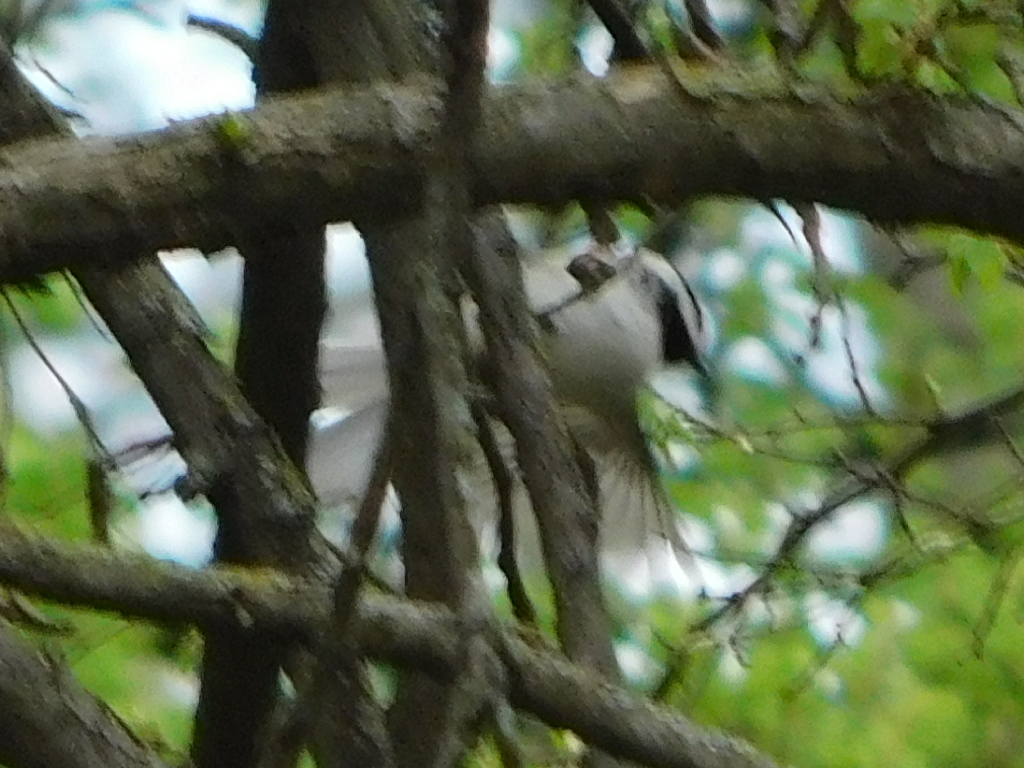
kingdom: Animalia
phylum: Chordata
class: Aves
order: Passeriformes
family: Paridae
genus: Poecile
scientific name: Poecile carolinensis
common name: Carolina chickadee
